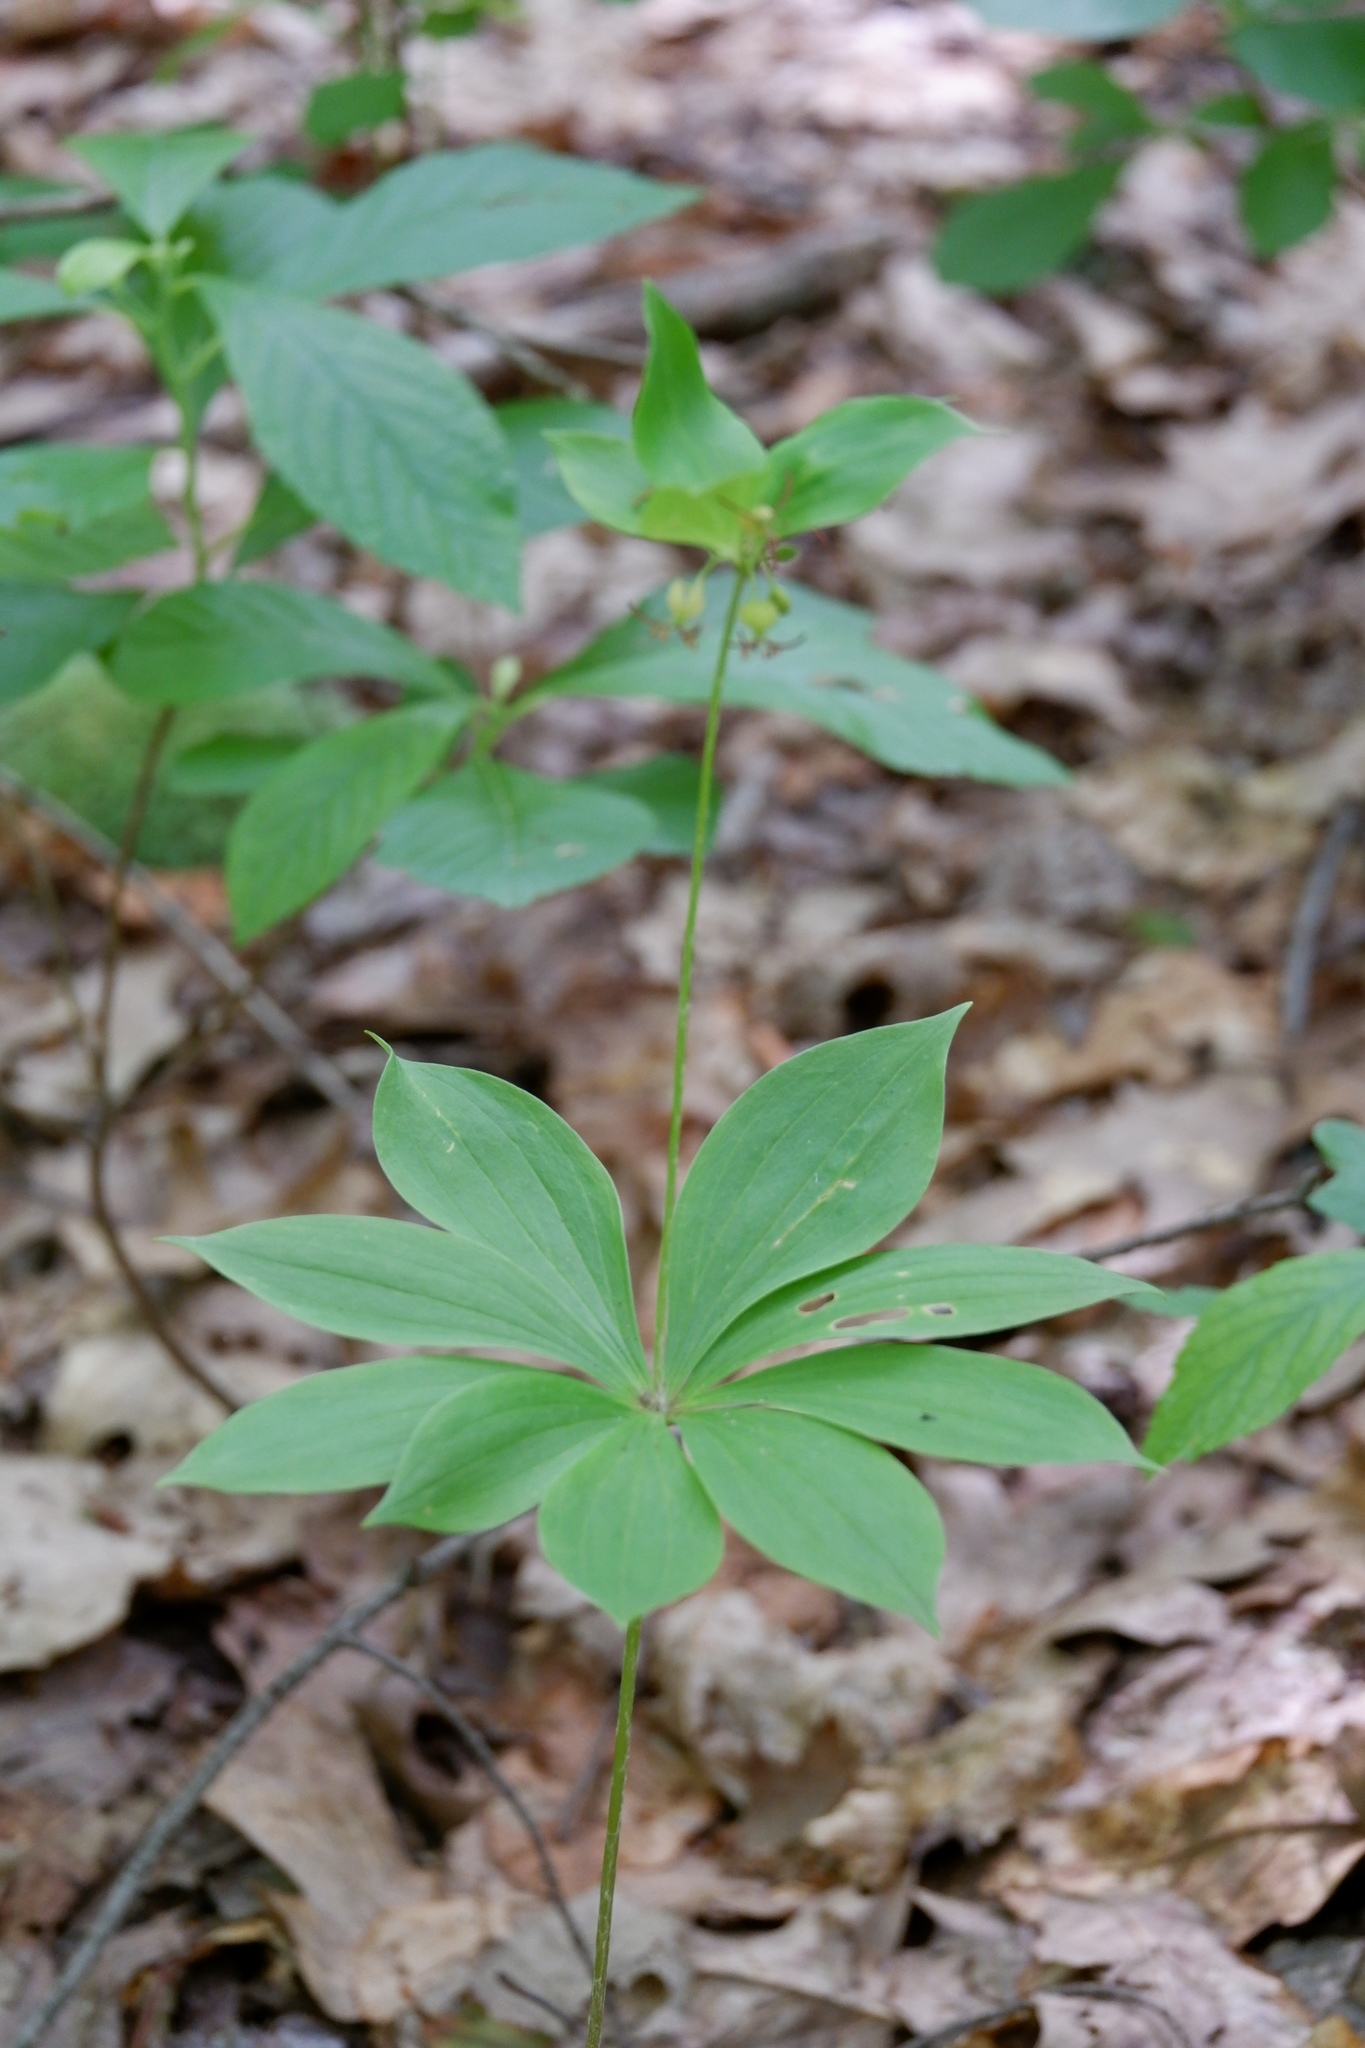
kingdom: Plantae
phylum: Tracheophyta
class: Liliopsida
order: Liliales
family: Liliaceae
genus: Medeola
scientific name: Medeola virginiana
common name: Indian cucumber-root
